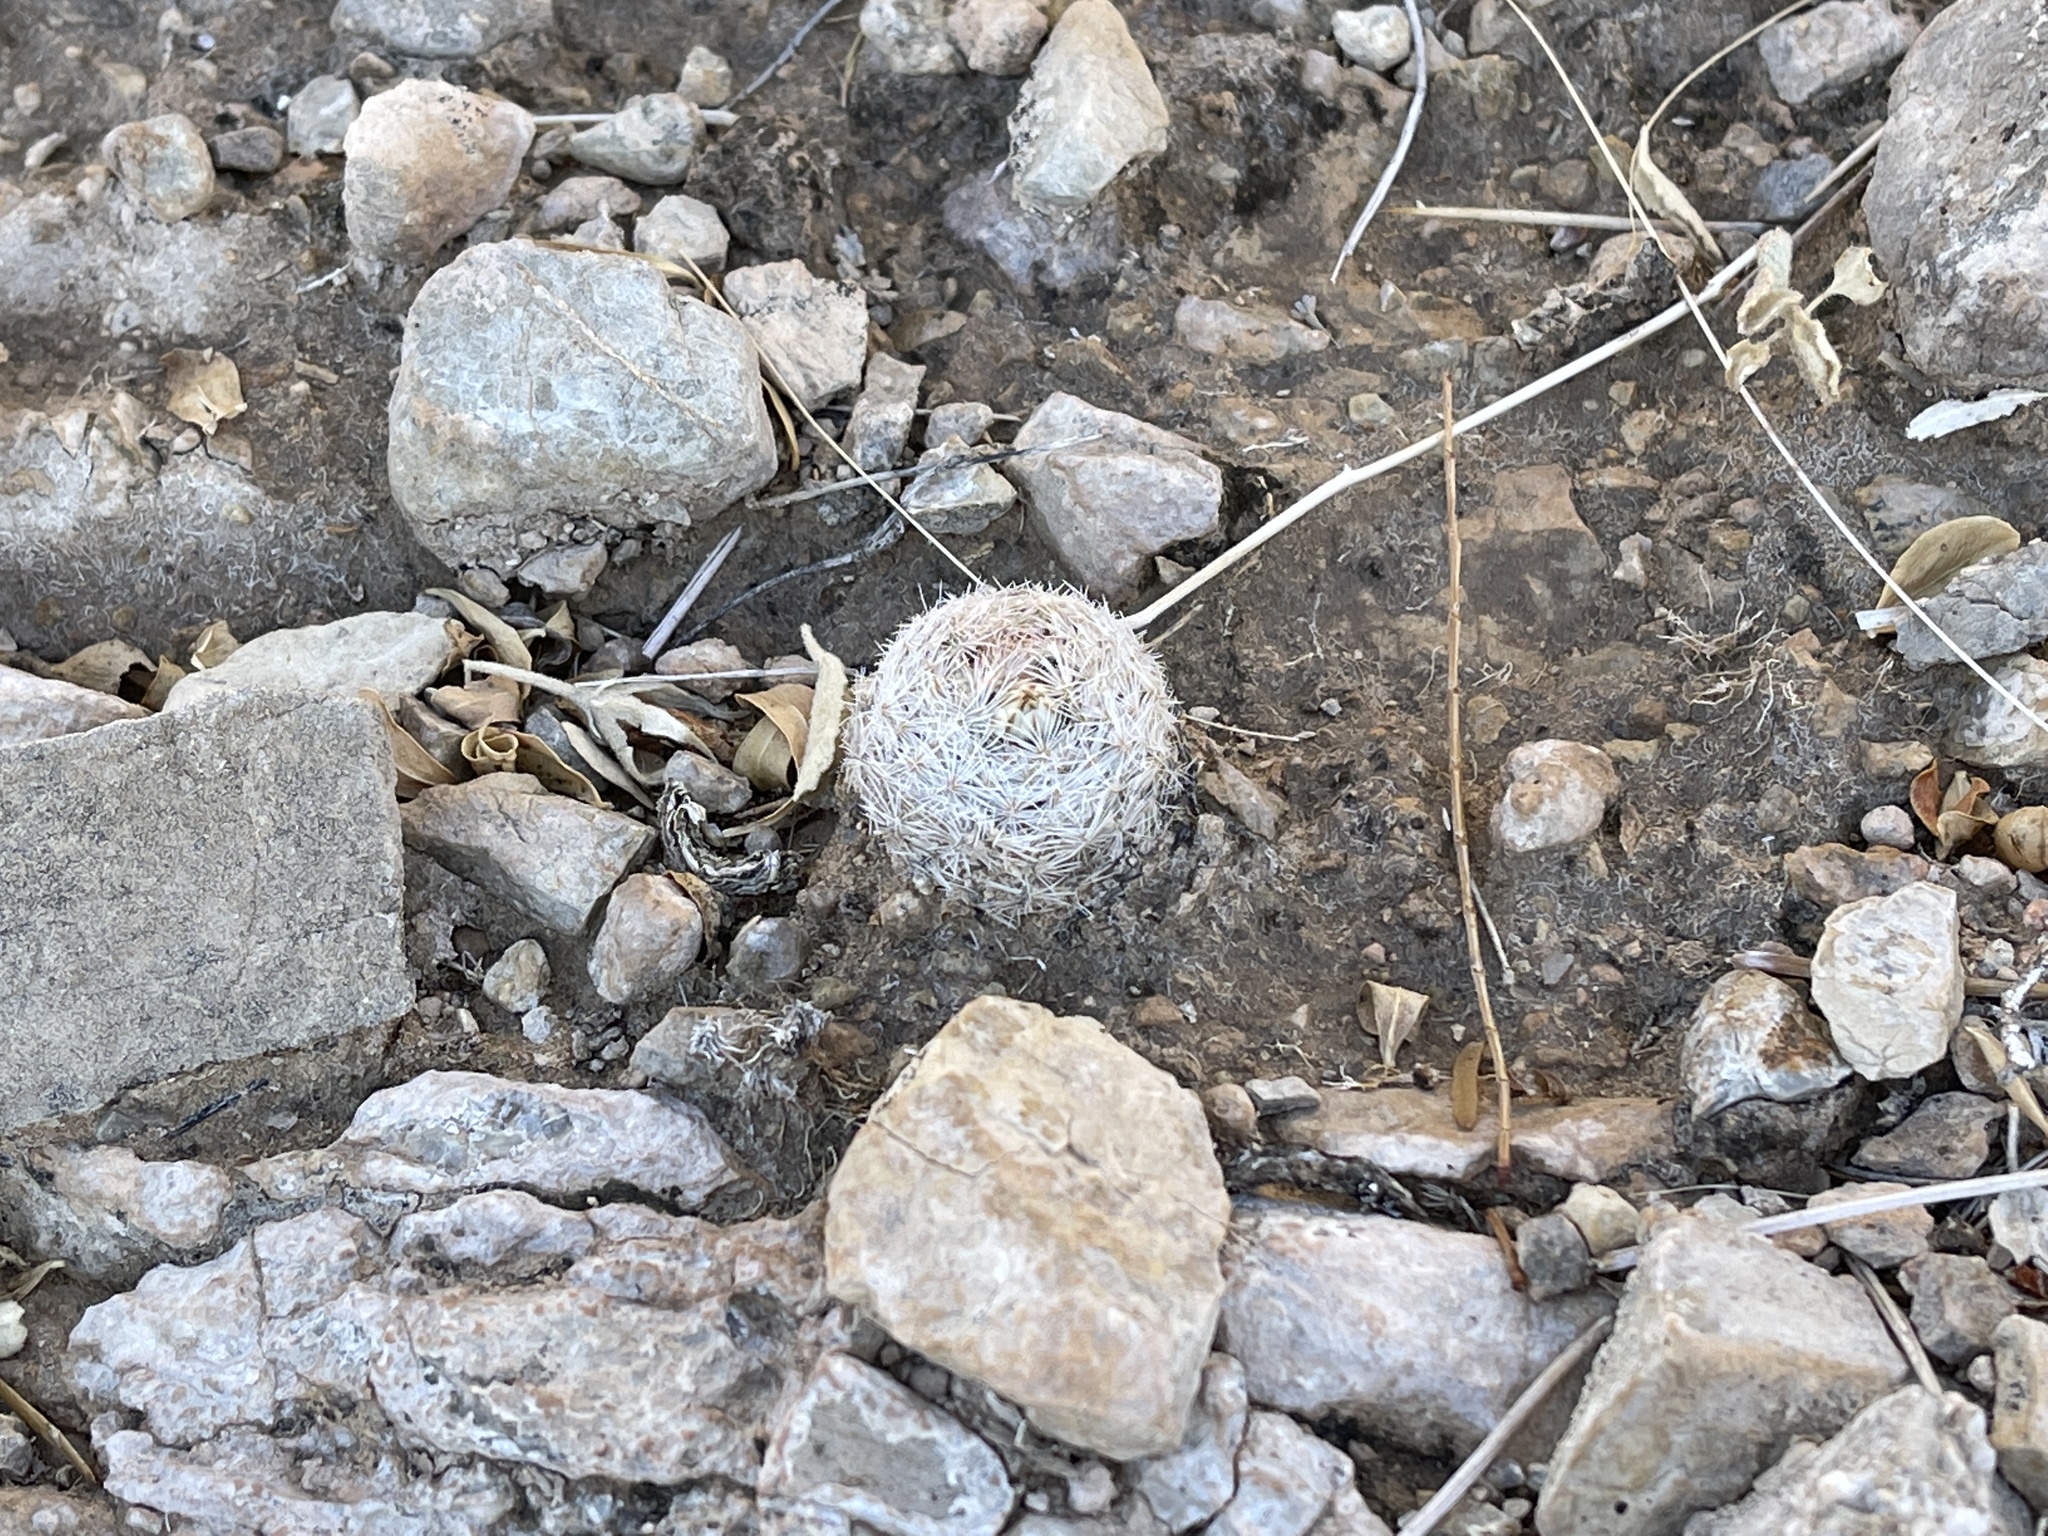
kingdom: Plantae
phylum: Tracheophyta
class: Magnoliopsida
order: Caryophyllales
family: Cactaceae
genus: Mammillaria
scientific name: Mammillaria lasiacantha
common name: Lace-spine nipple cactus
